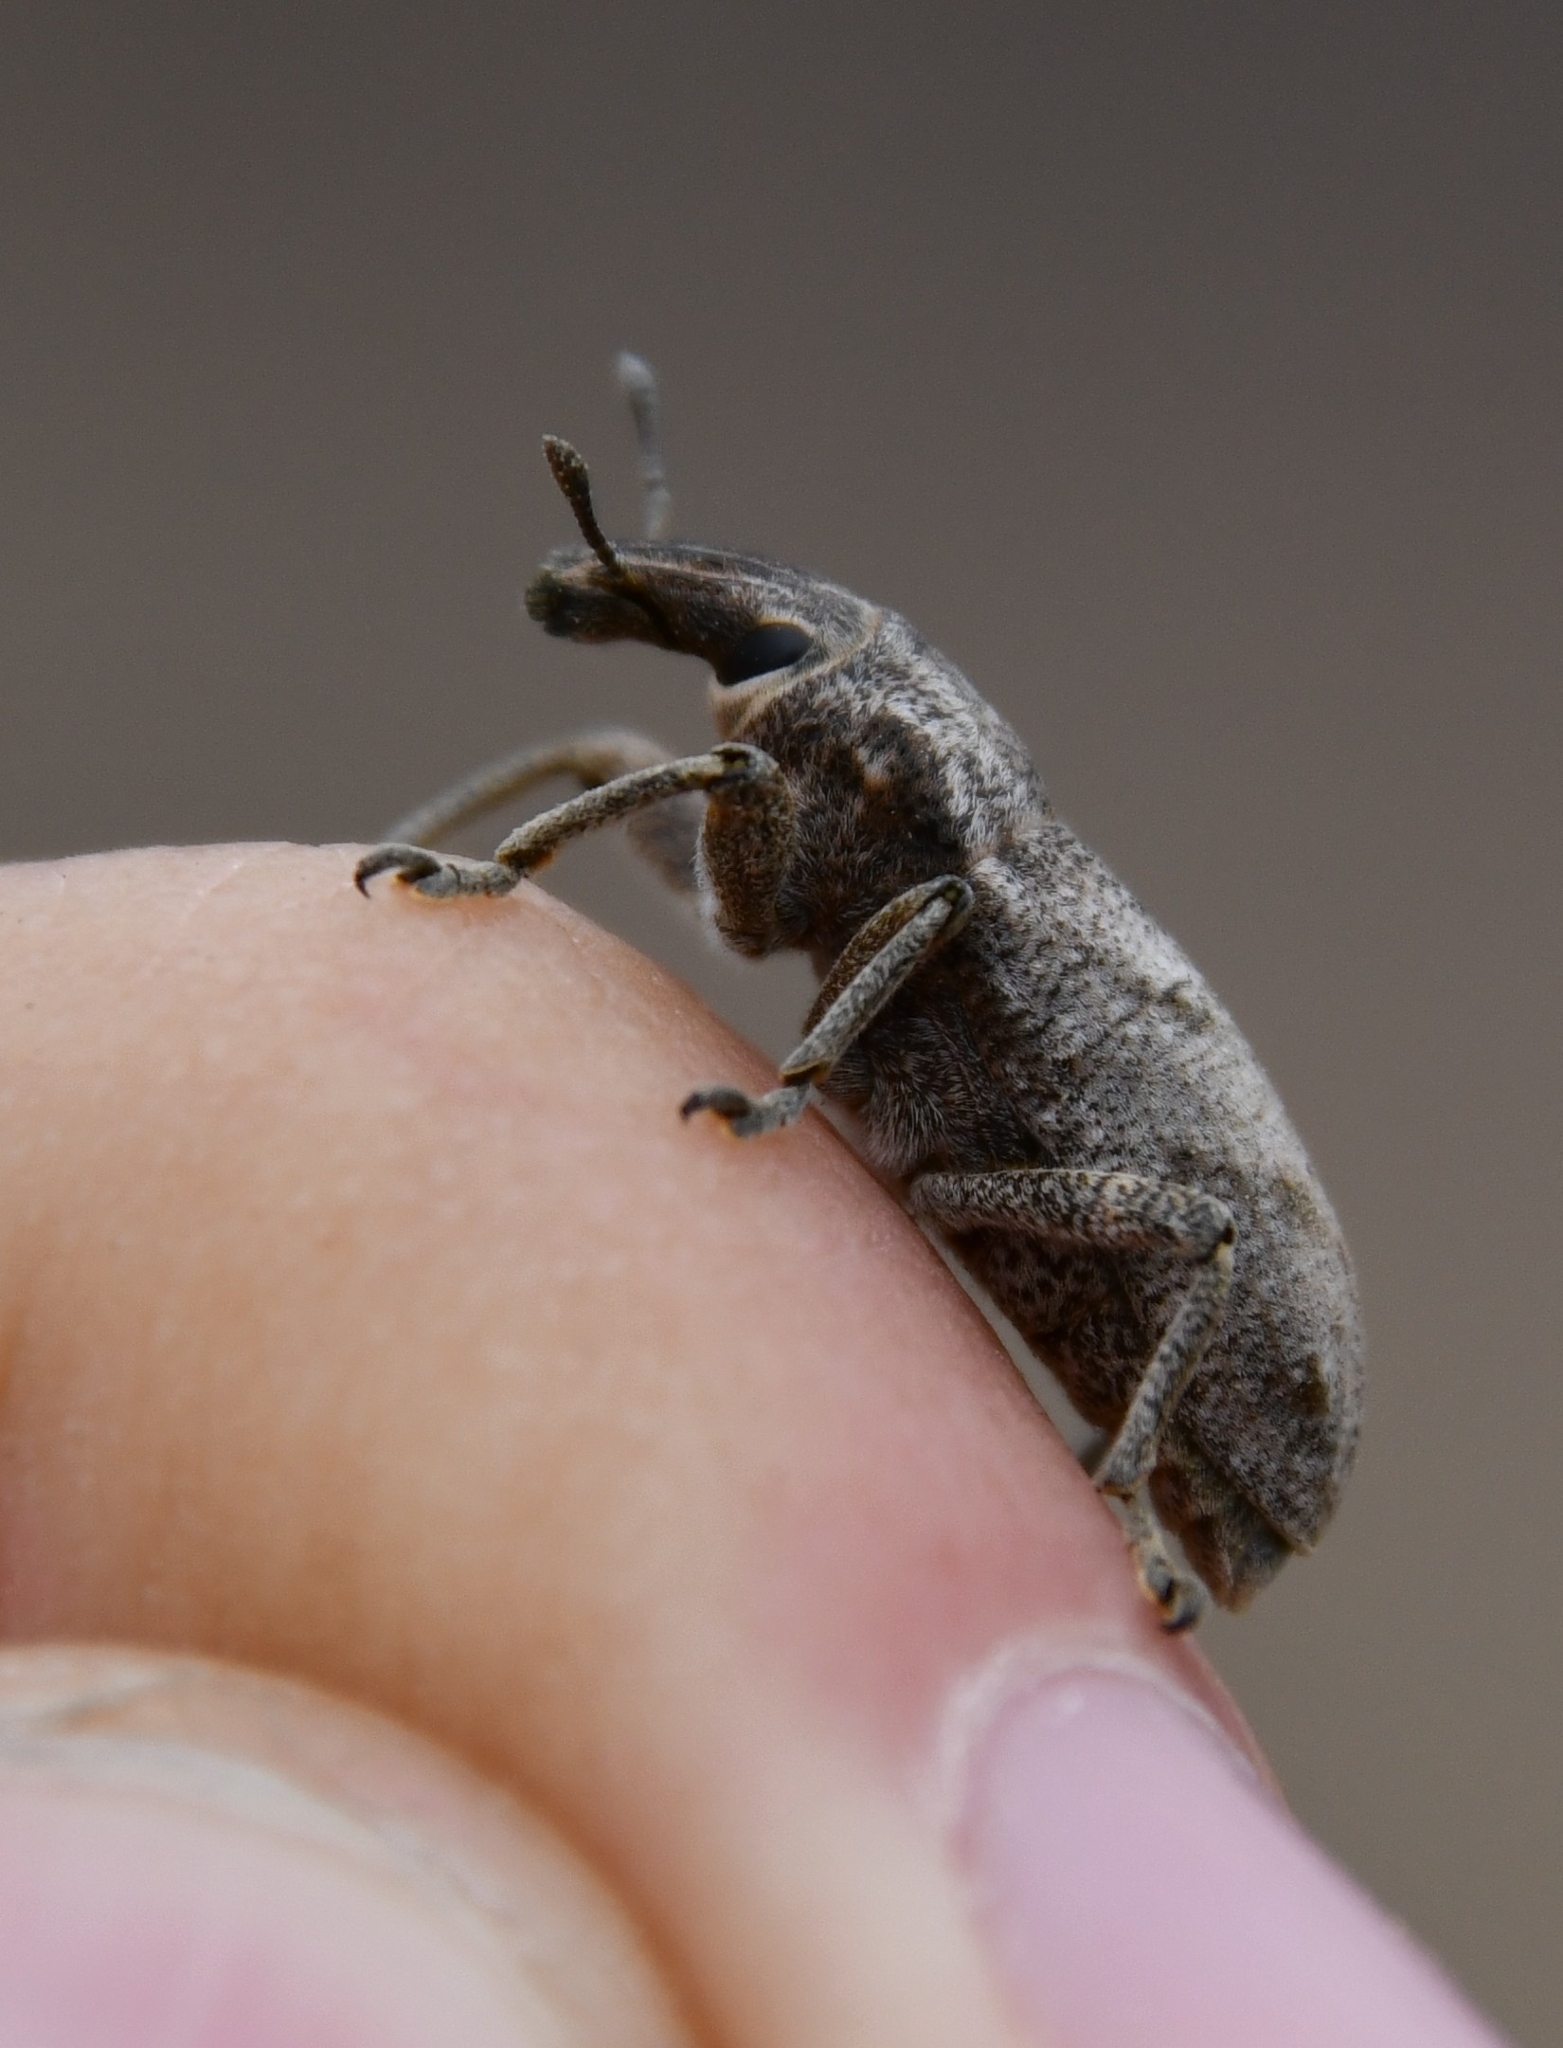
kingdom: Animalia
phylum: Arthropoda
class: Insecta
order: Coleoptera
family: Curculionidae
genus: Cleonis
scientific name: Cleonis pigra
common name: Large thistle weevil
